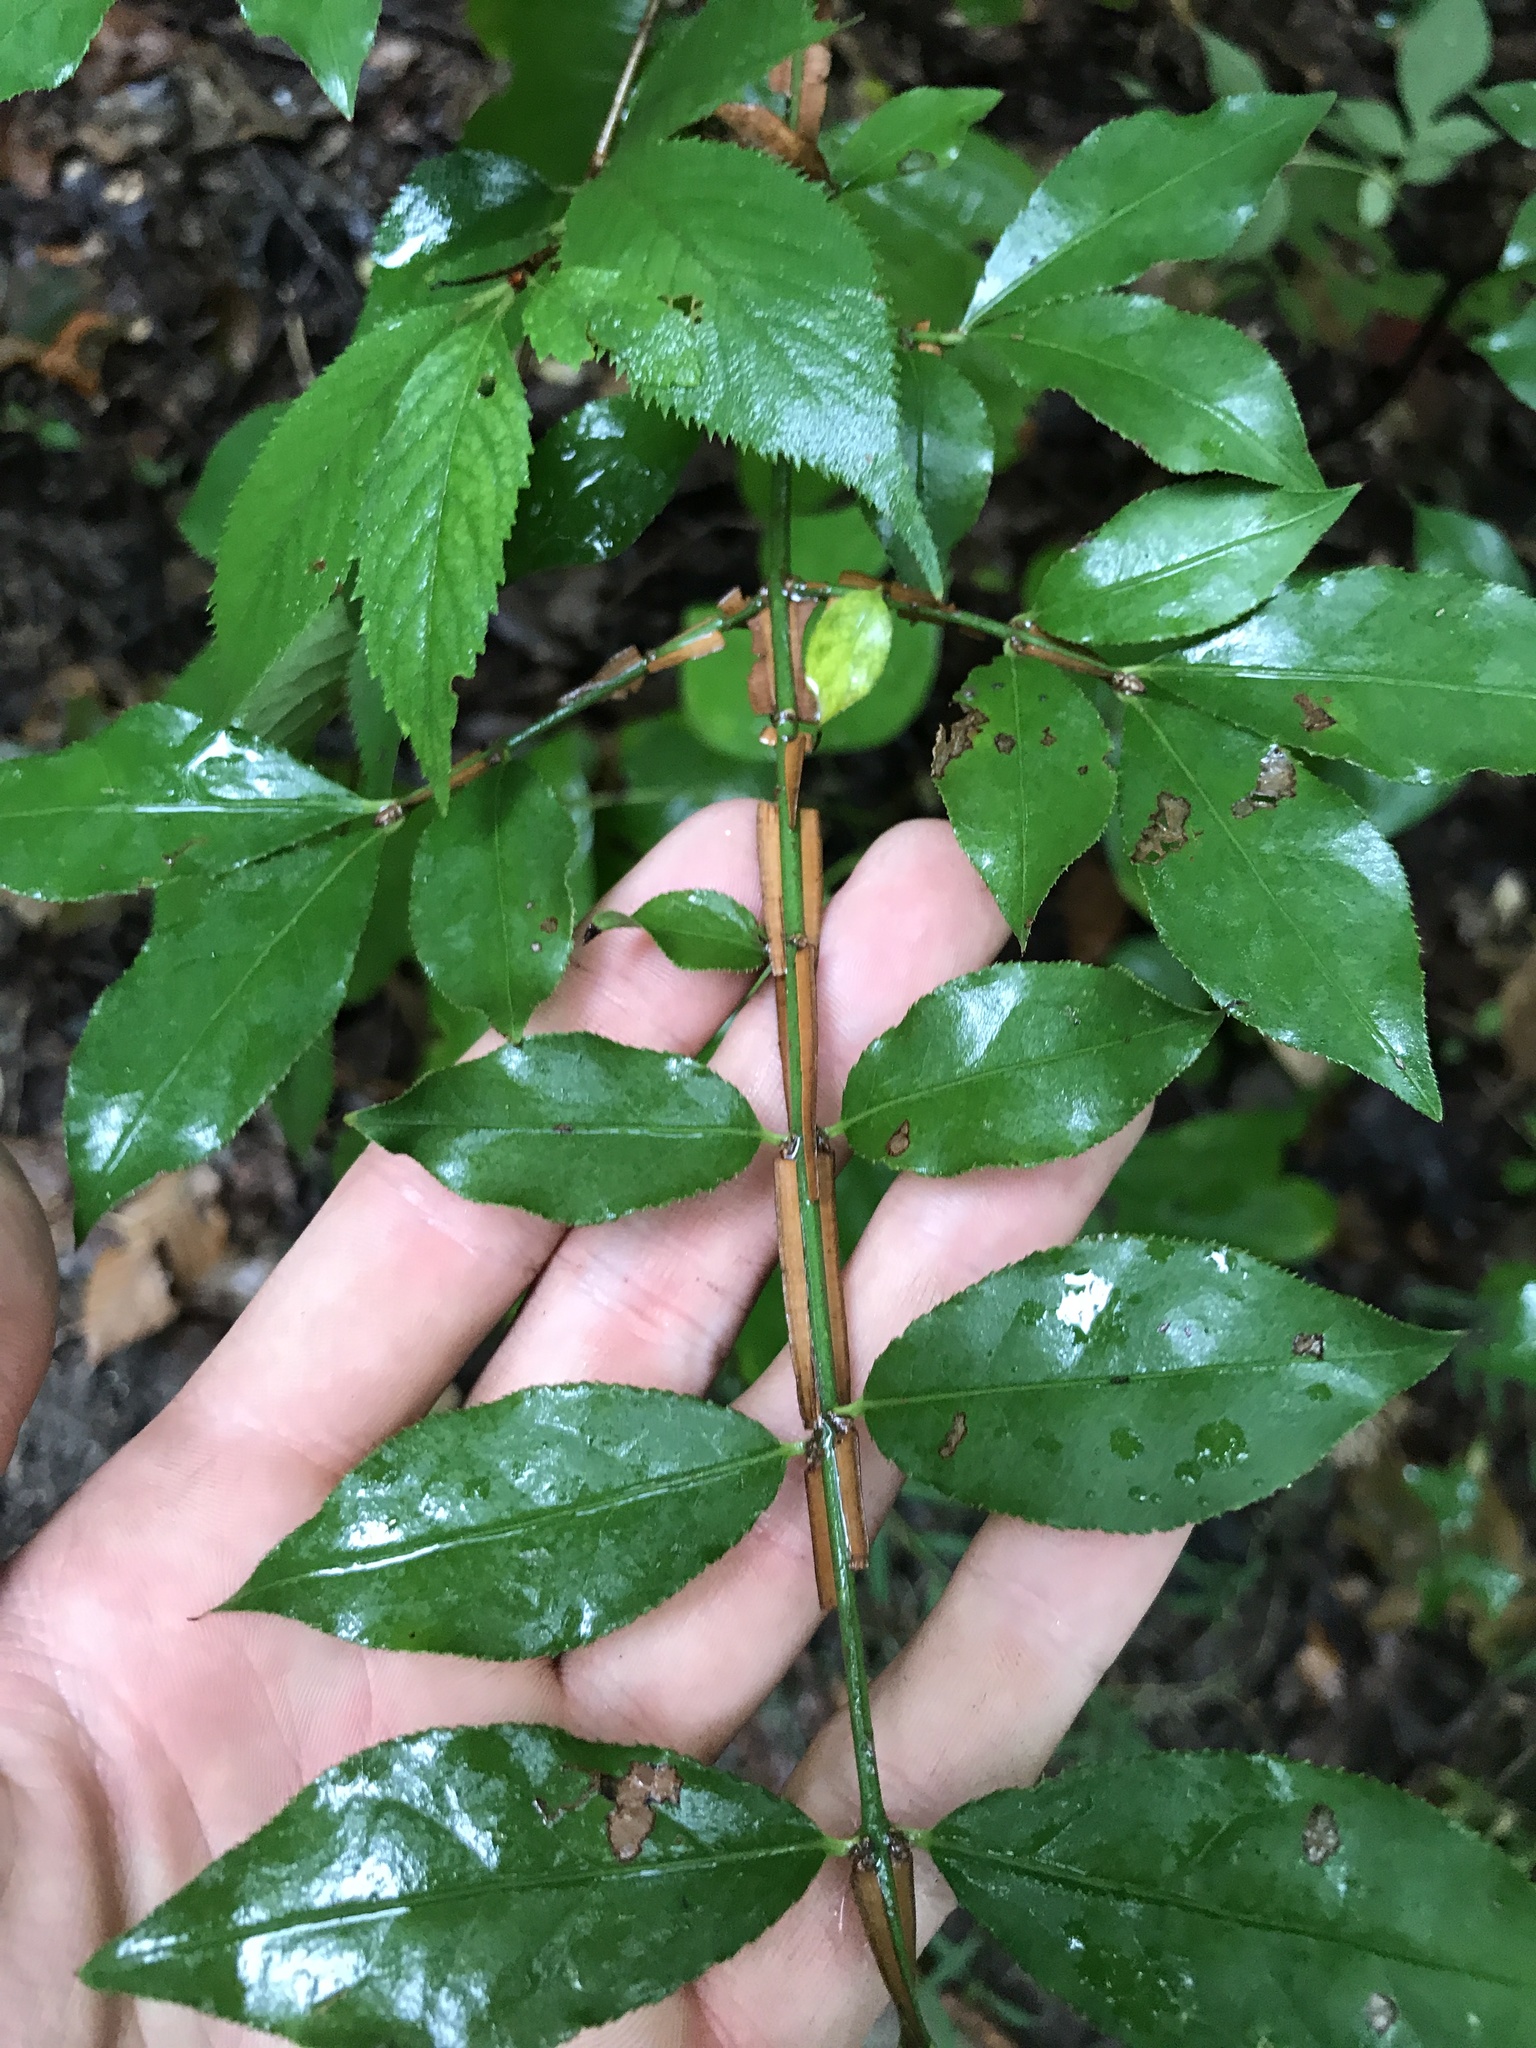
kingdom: Plantae
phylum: Tracheophyta
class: Magnoliopsida
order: Celastrales
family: Celastraceae
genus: Euonymus
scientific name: Euonymus alatus
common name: Winged euonymus
